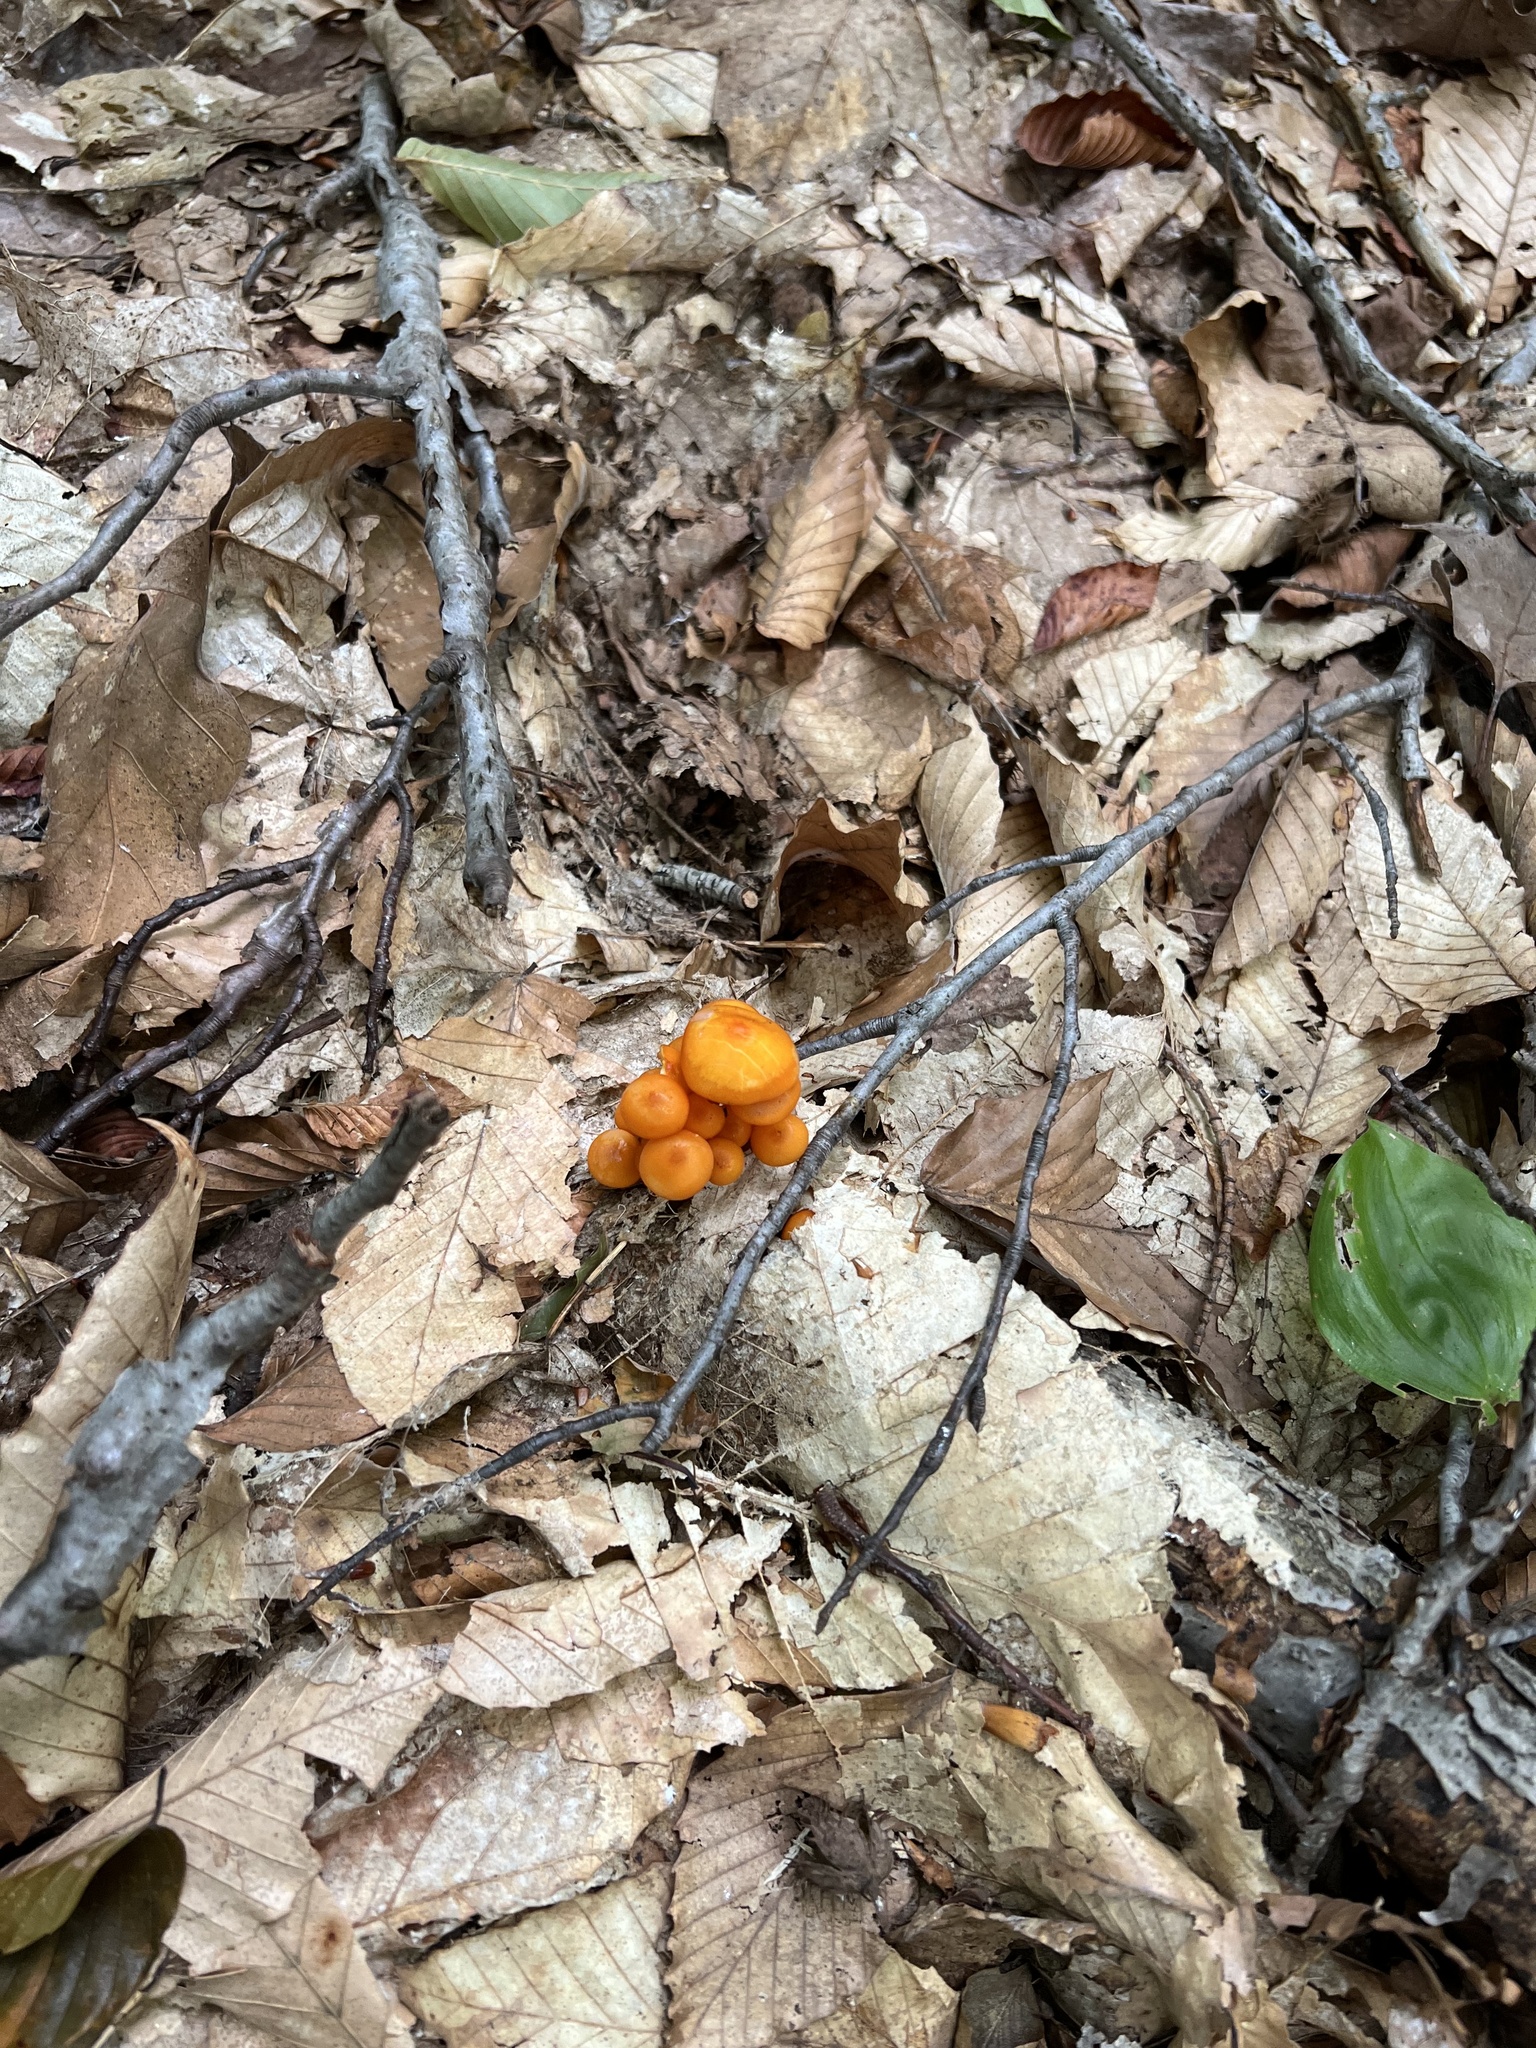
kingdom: Fungi
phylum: Basidiomycota
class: Agaricomycetes
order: Agaricales
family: Mycenaceae
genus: Mycena
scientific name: Mycena leaiana
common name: Orange mycena
